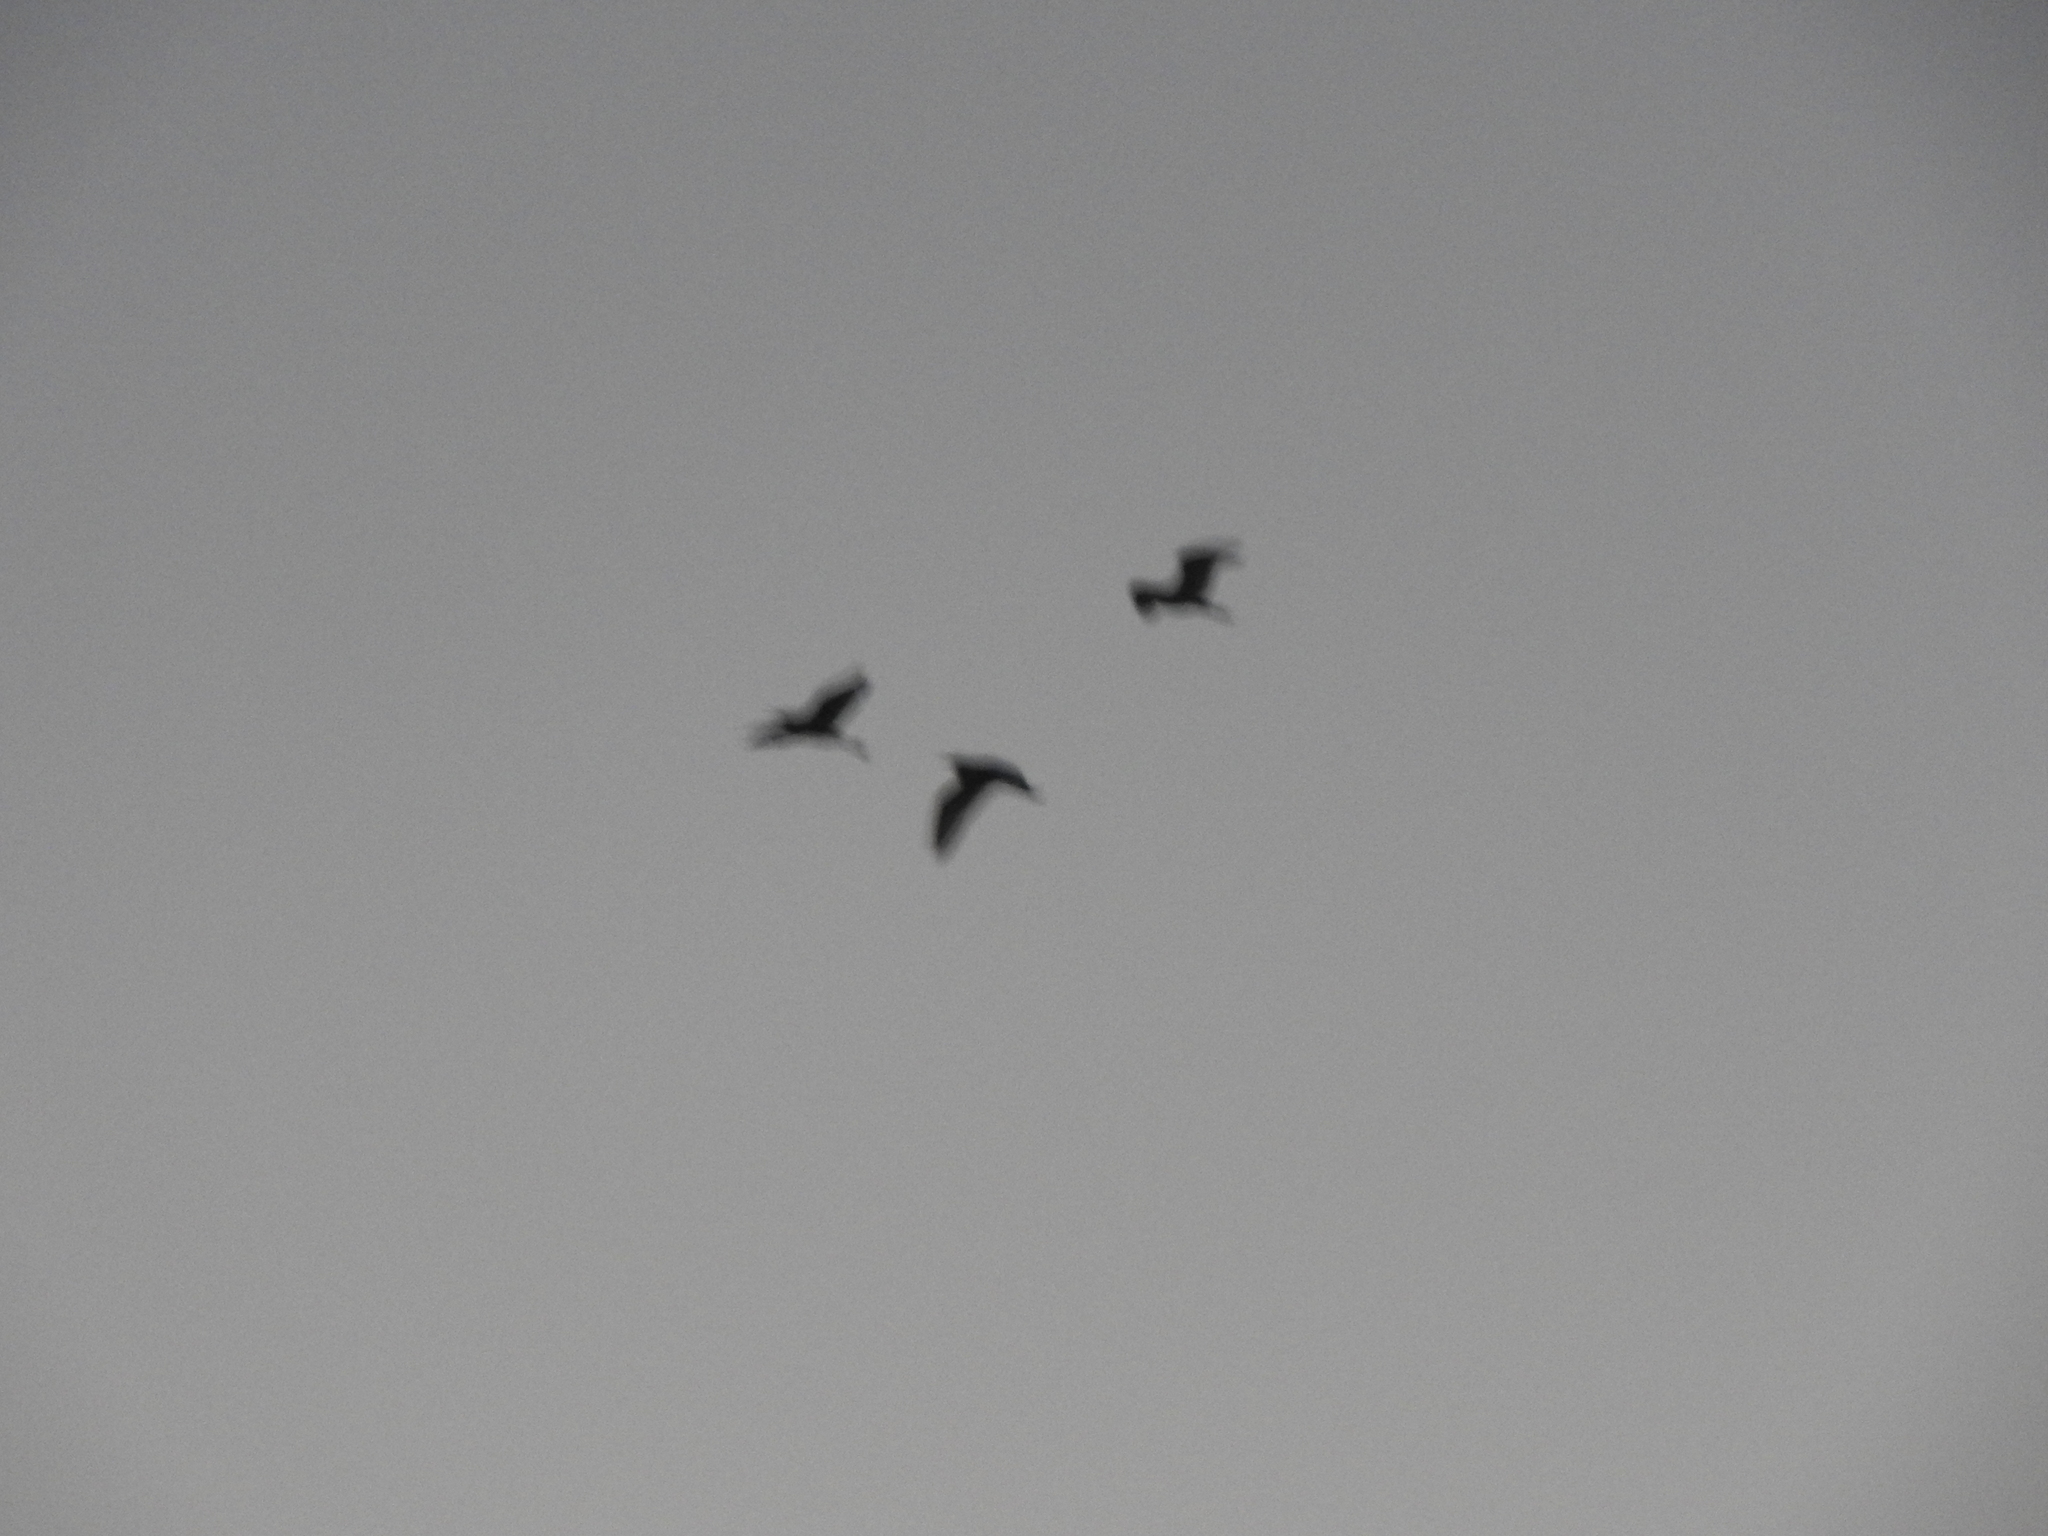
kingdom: Animalia
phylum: Chordata
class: Aves
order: Pelecaniformes
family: Ardeidae
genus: Bubulcus
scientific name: Bubulcus ibis
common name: Cattle egret
